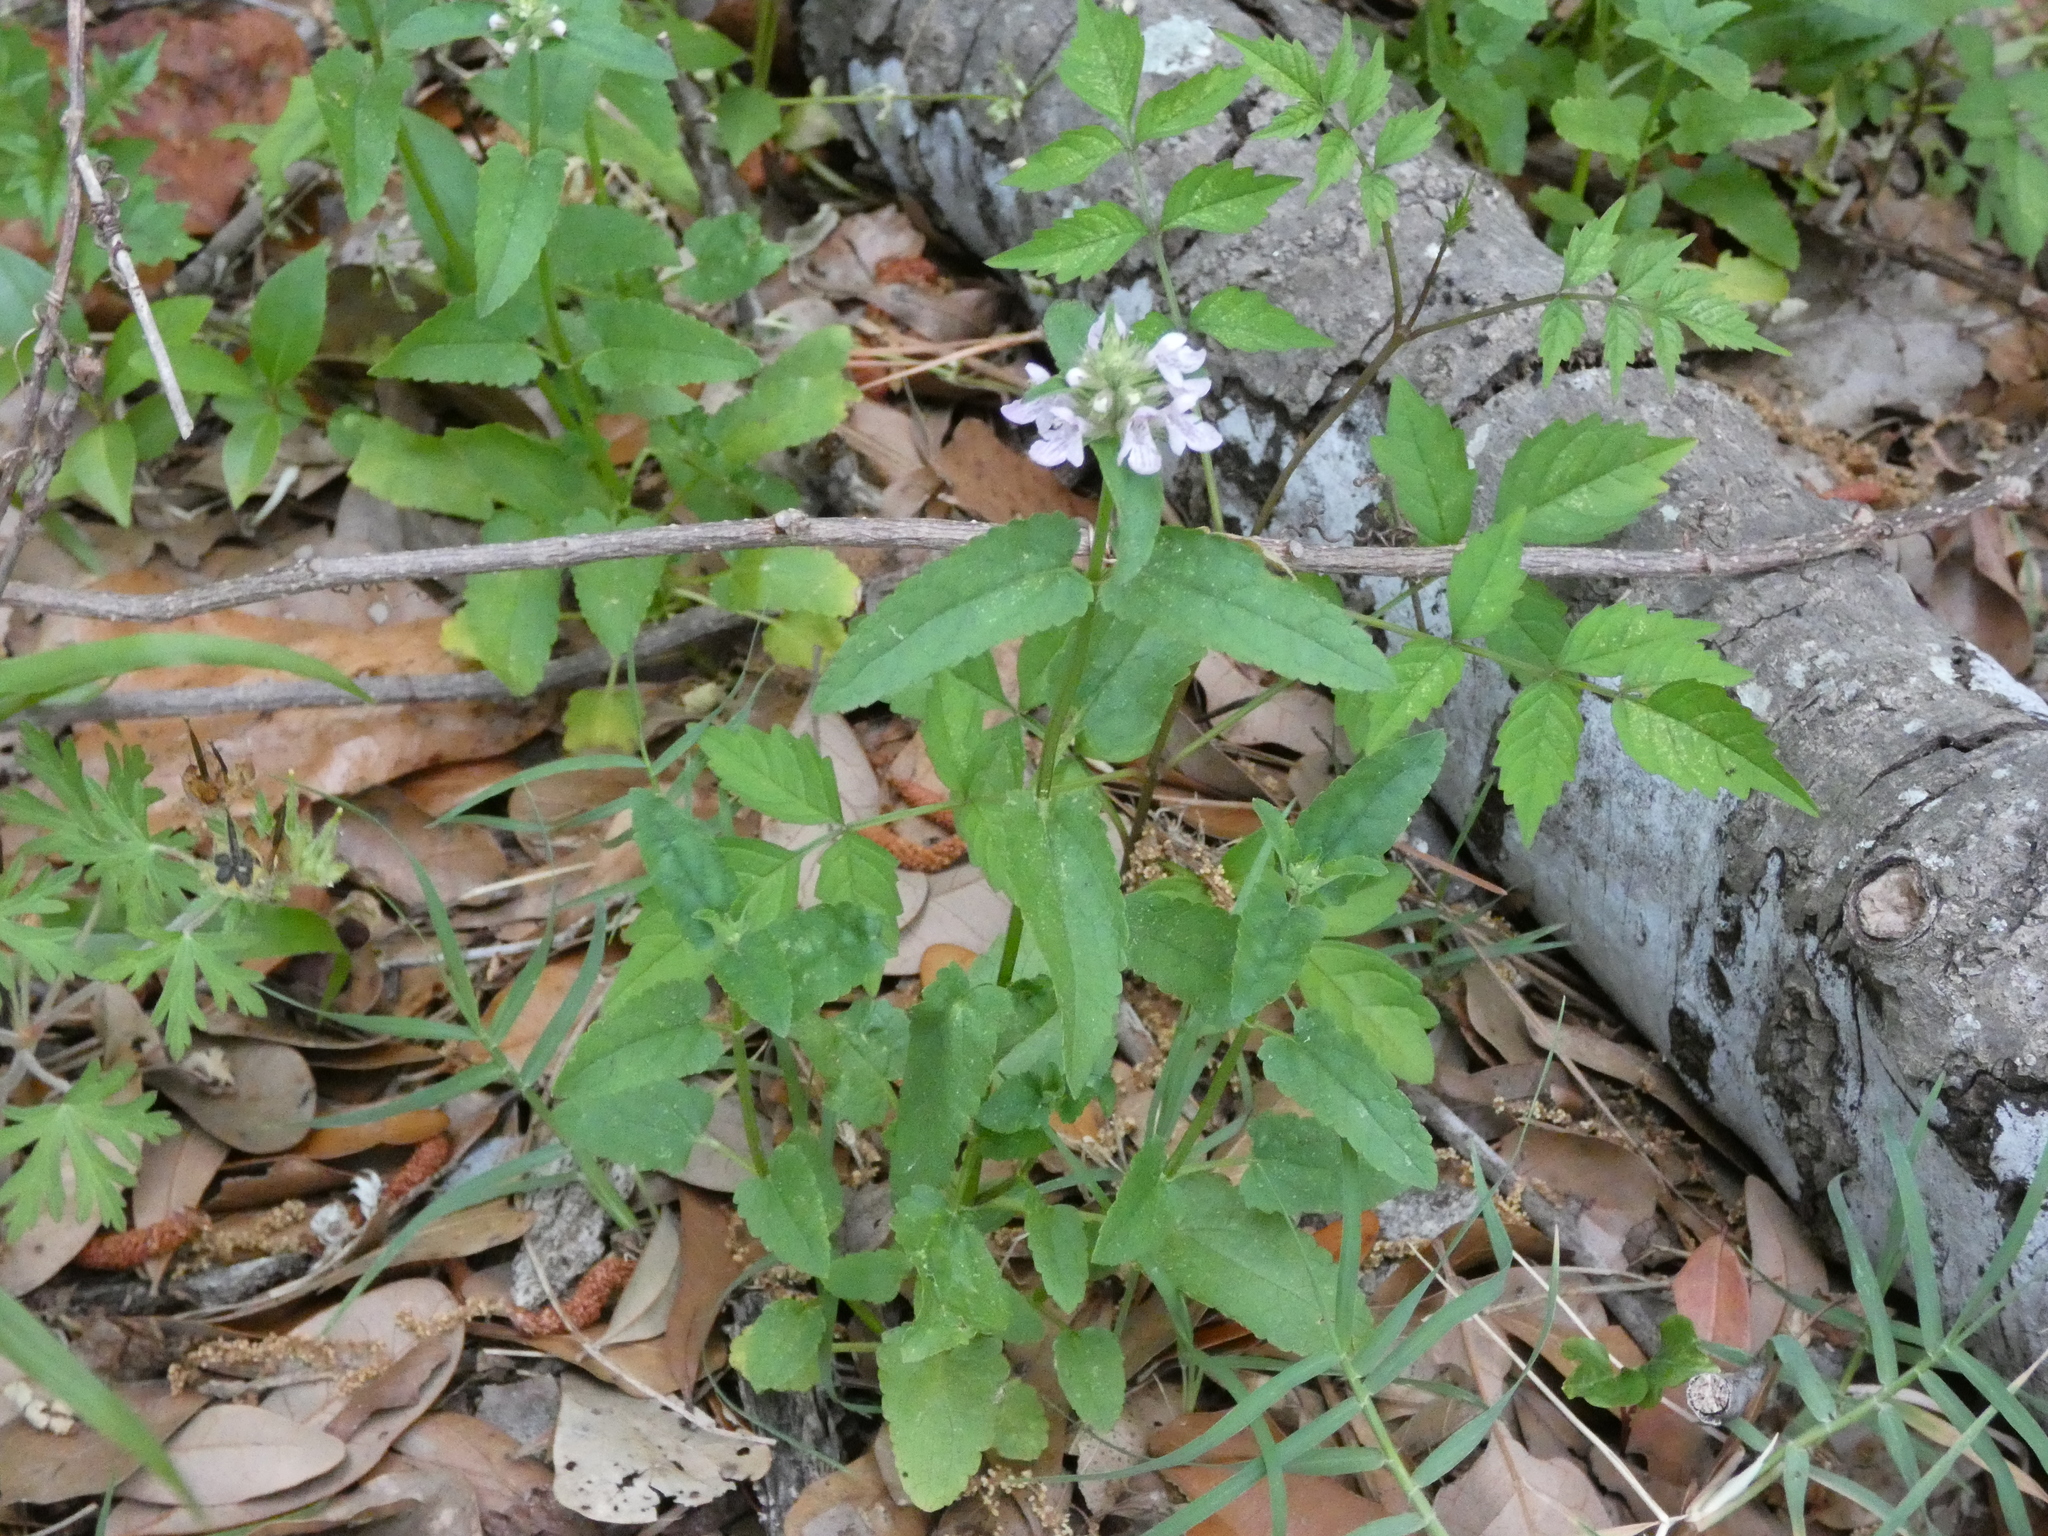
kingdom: Plantae
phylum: Tracheophyta
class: Magnoliopsida
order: Lamiales
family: Lamiaceae
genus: Stachys
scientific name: Stachys floridana
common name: Florida betony
